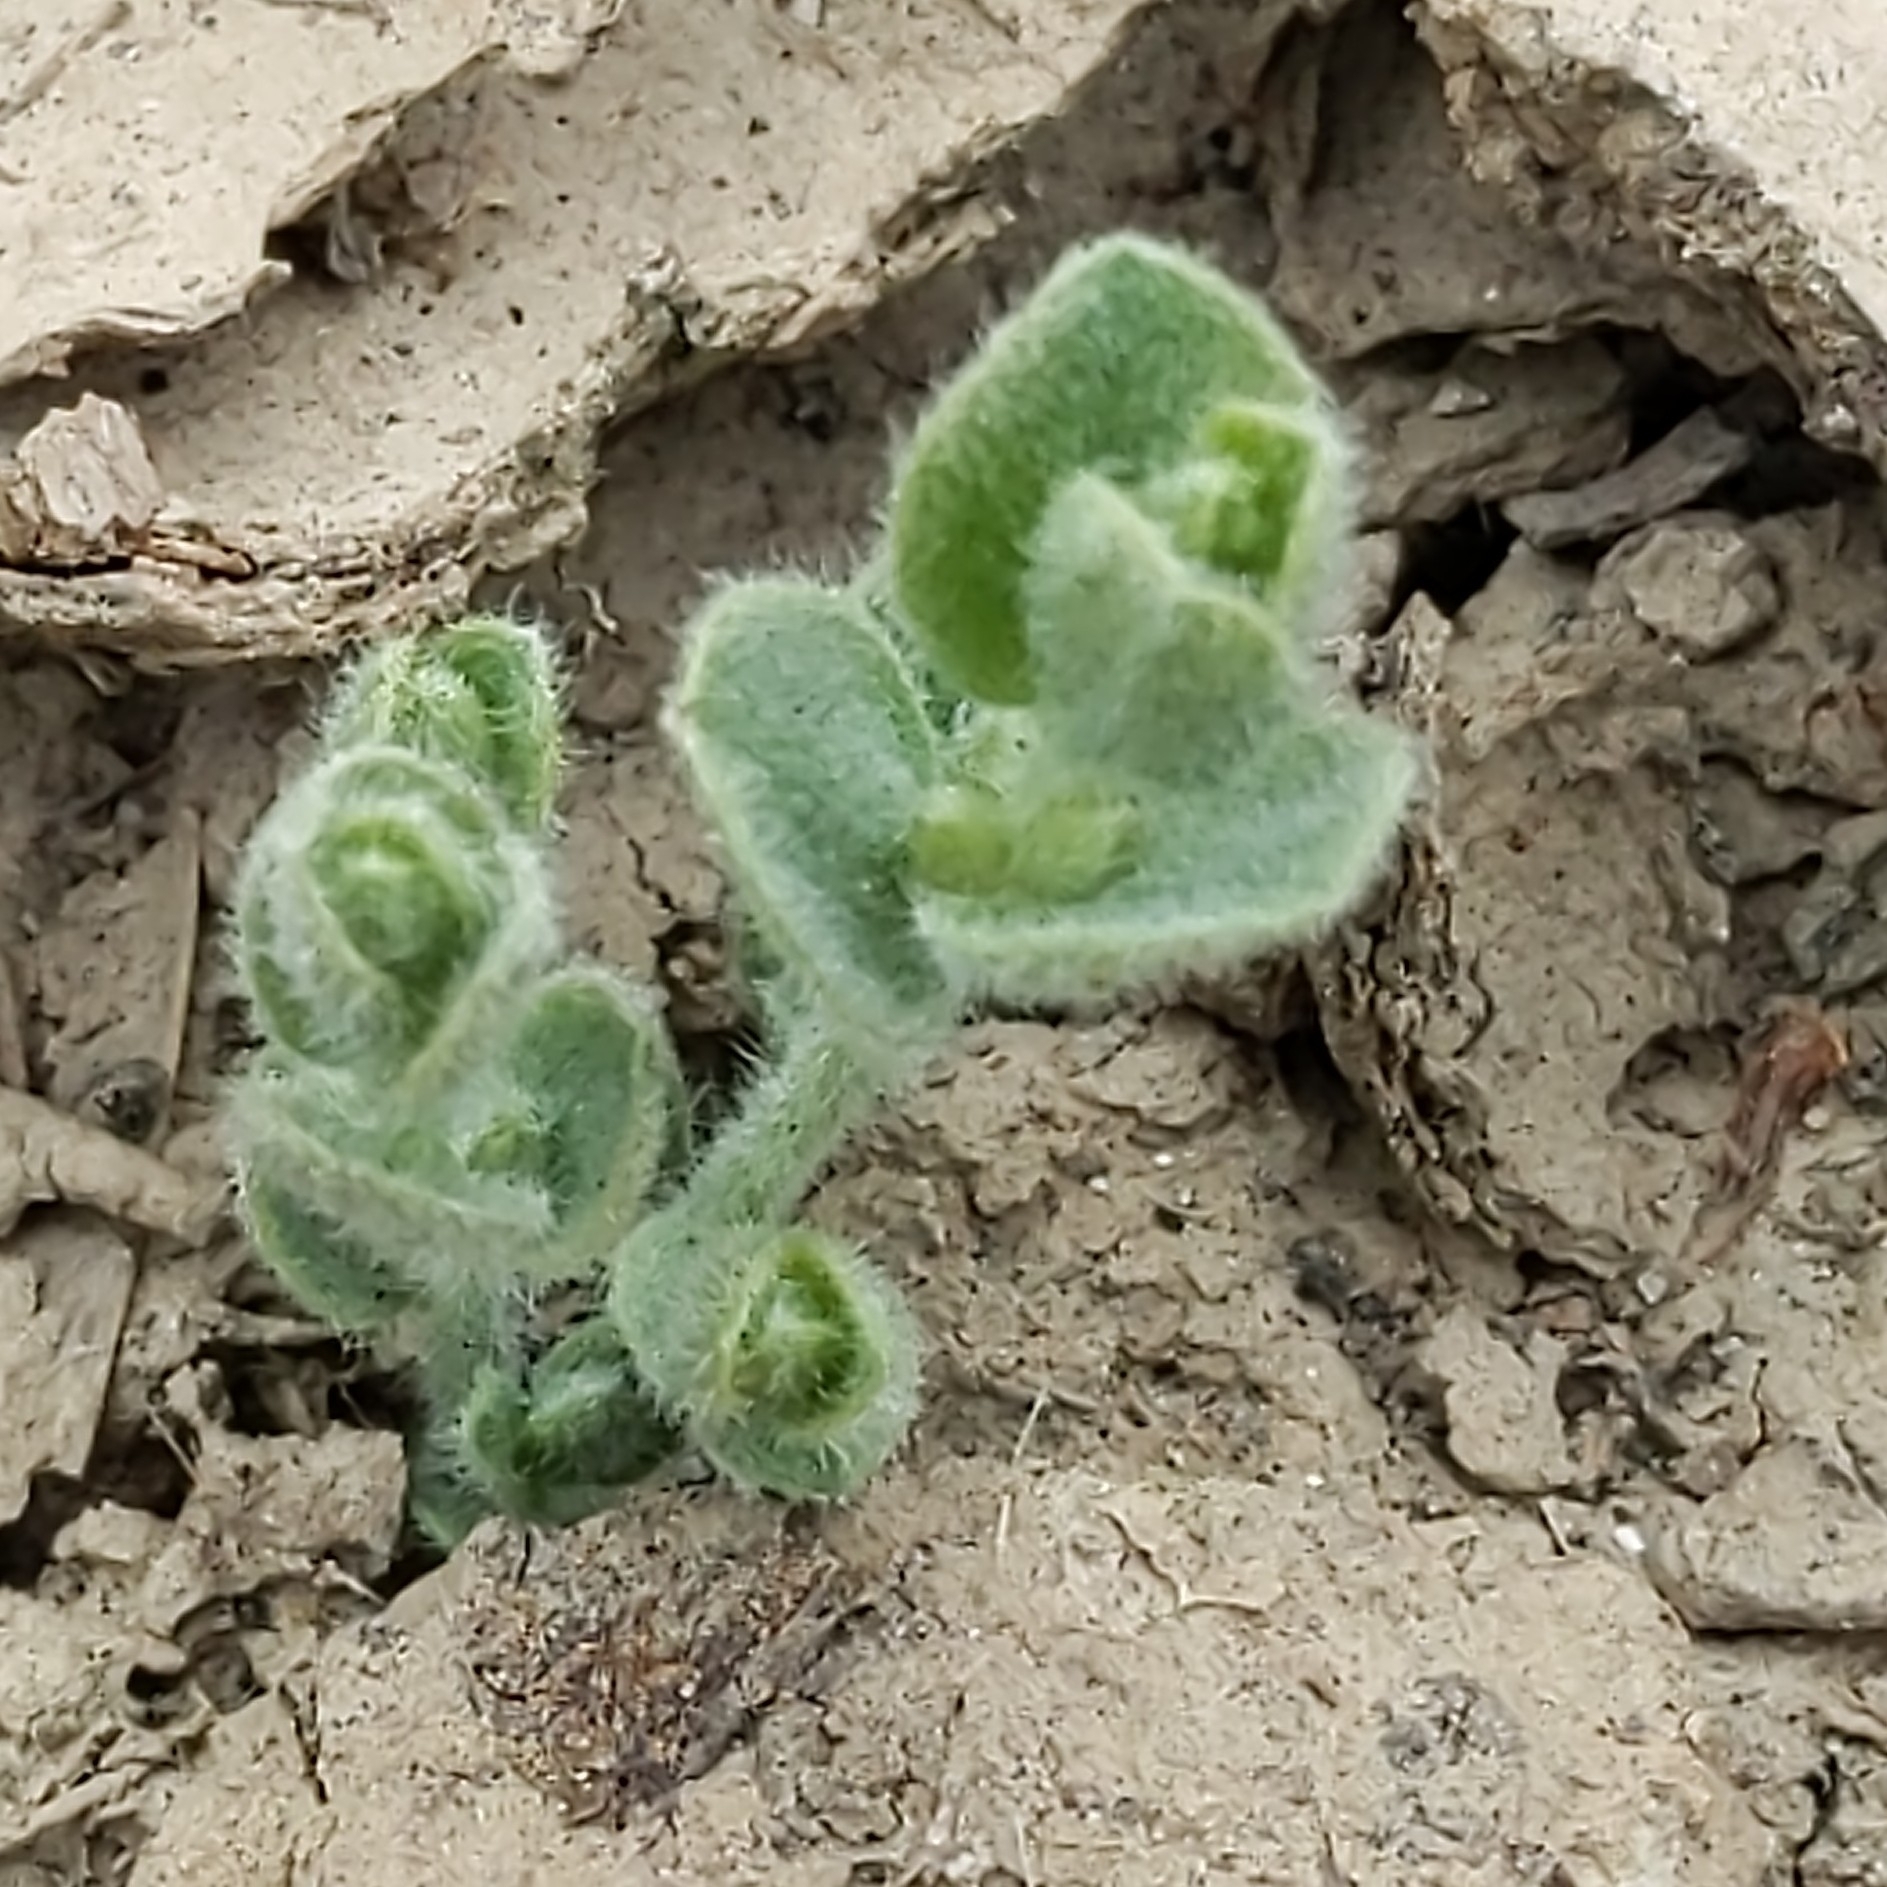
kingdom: Plantae
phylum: Tracheophyta
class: Magnoliopsida
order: Solanales
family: Convolvulaceae
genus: Cressa
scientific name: Cressa truxillensis
